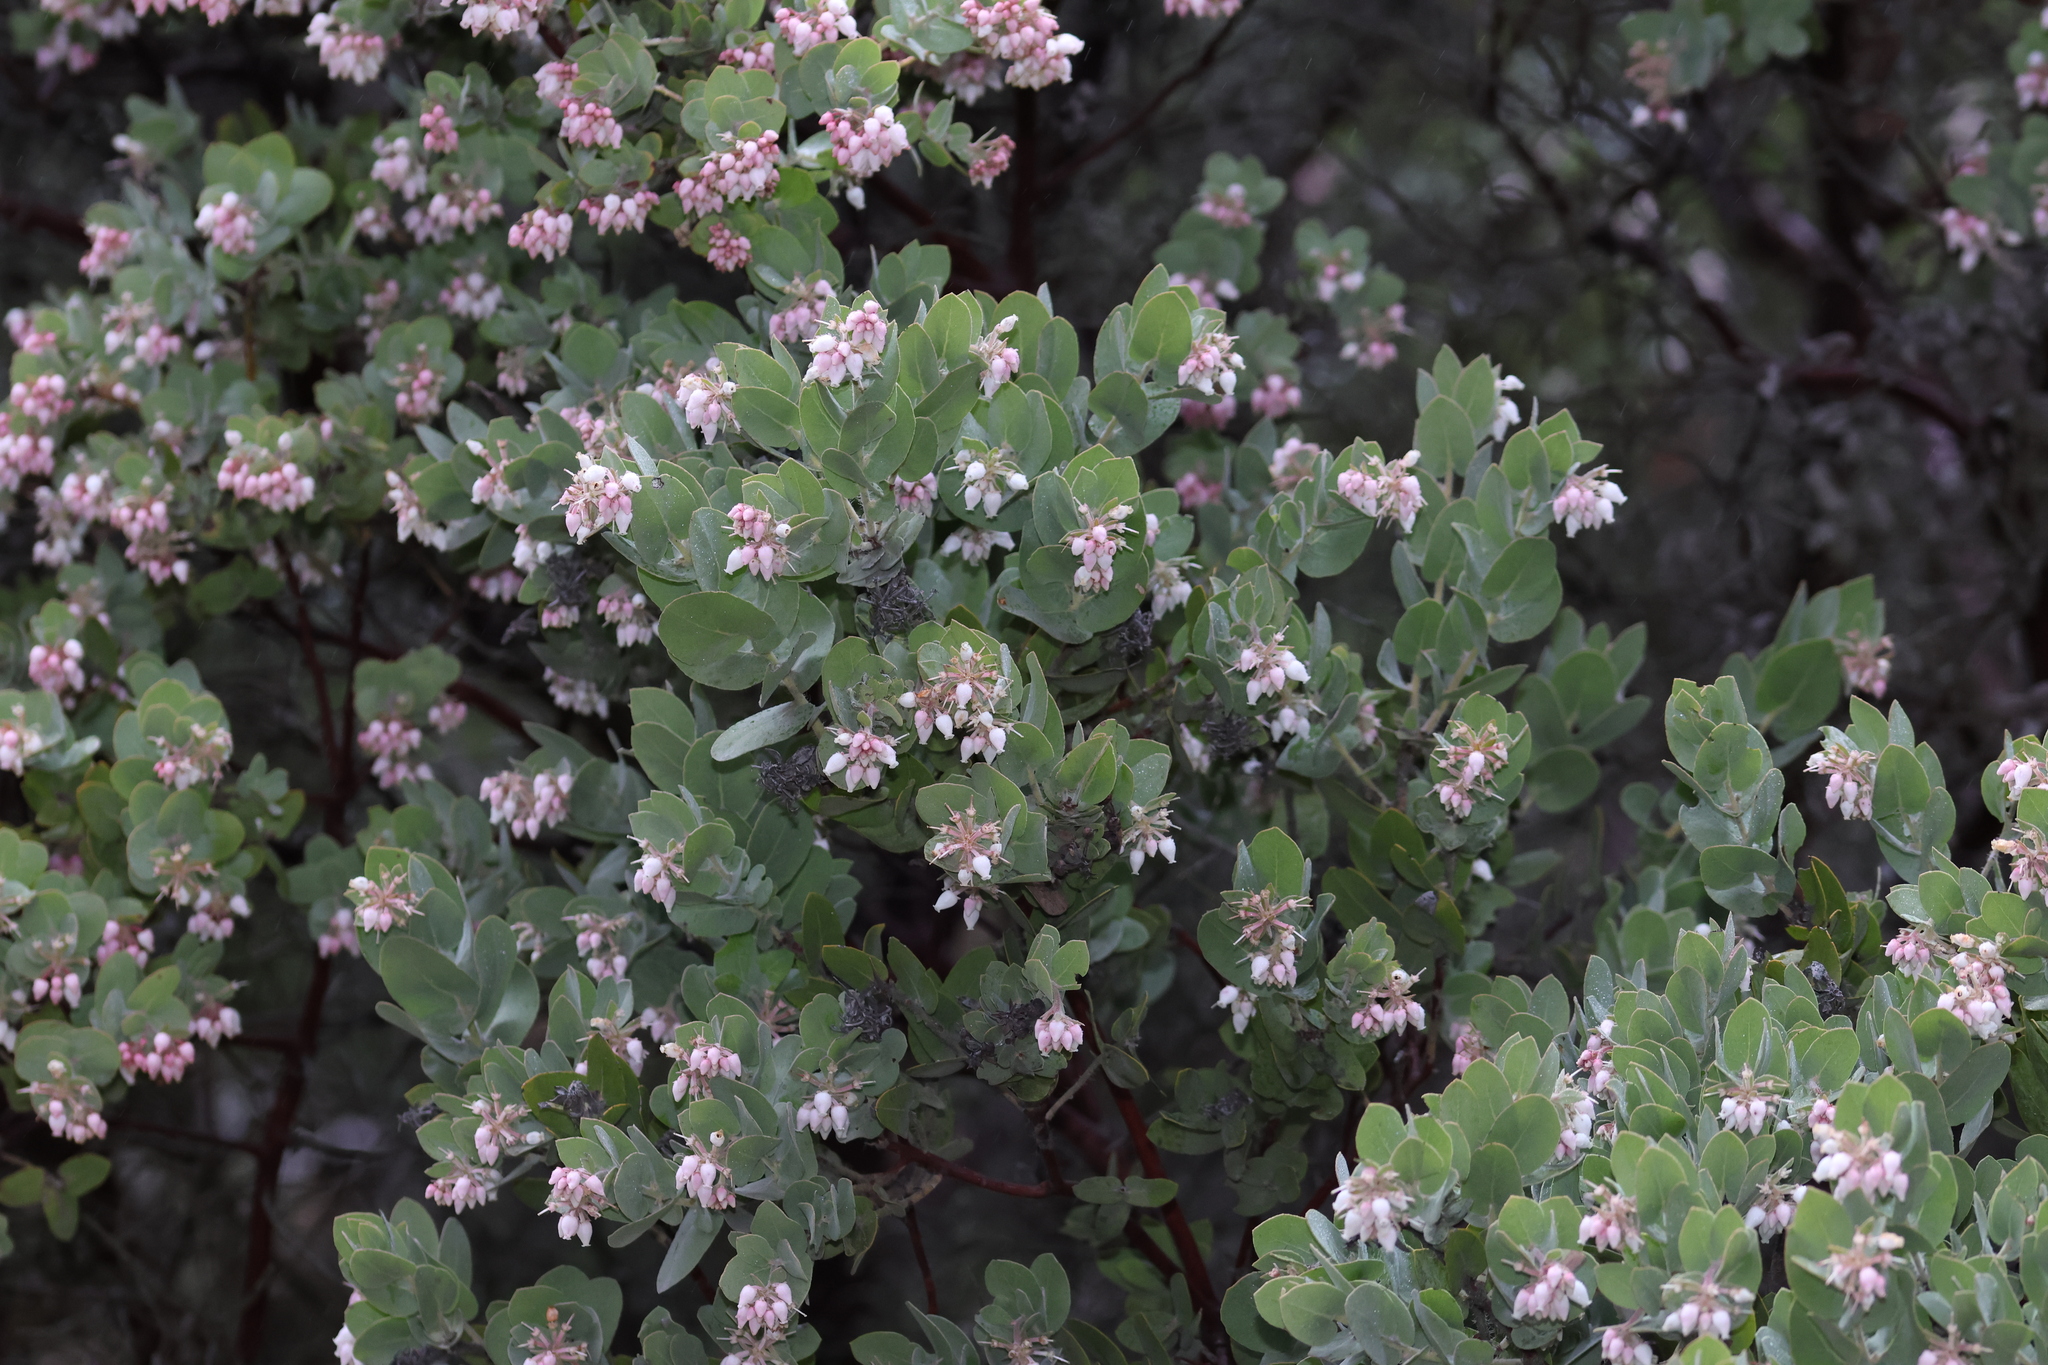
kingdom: Plantae
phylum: Tracheophyta
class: Magnoliopsida
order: Ericales
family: Ericaceae
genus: Arctostaphylos
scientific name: Arctostaphylos auriculata
